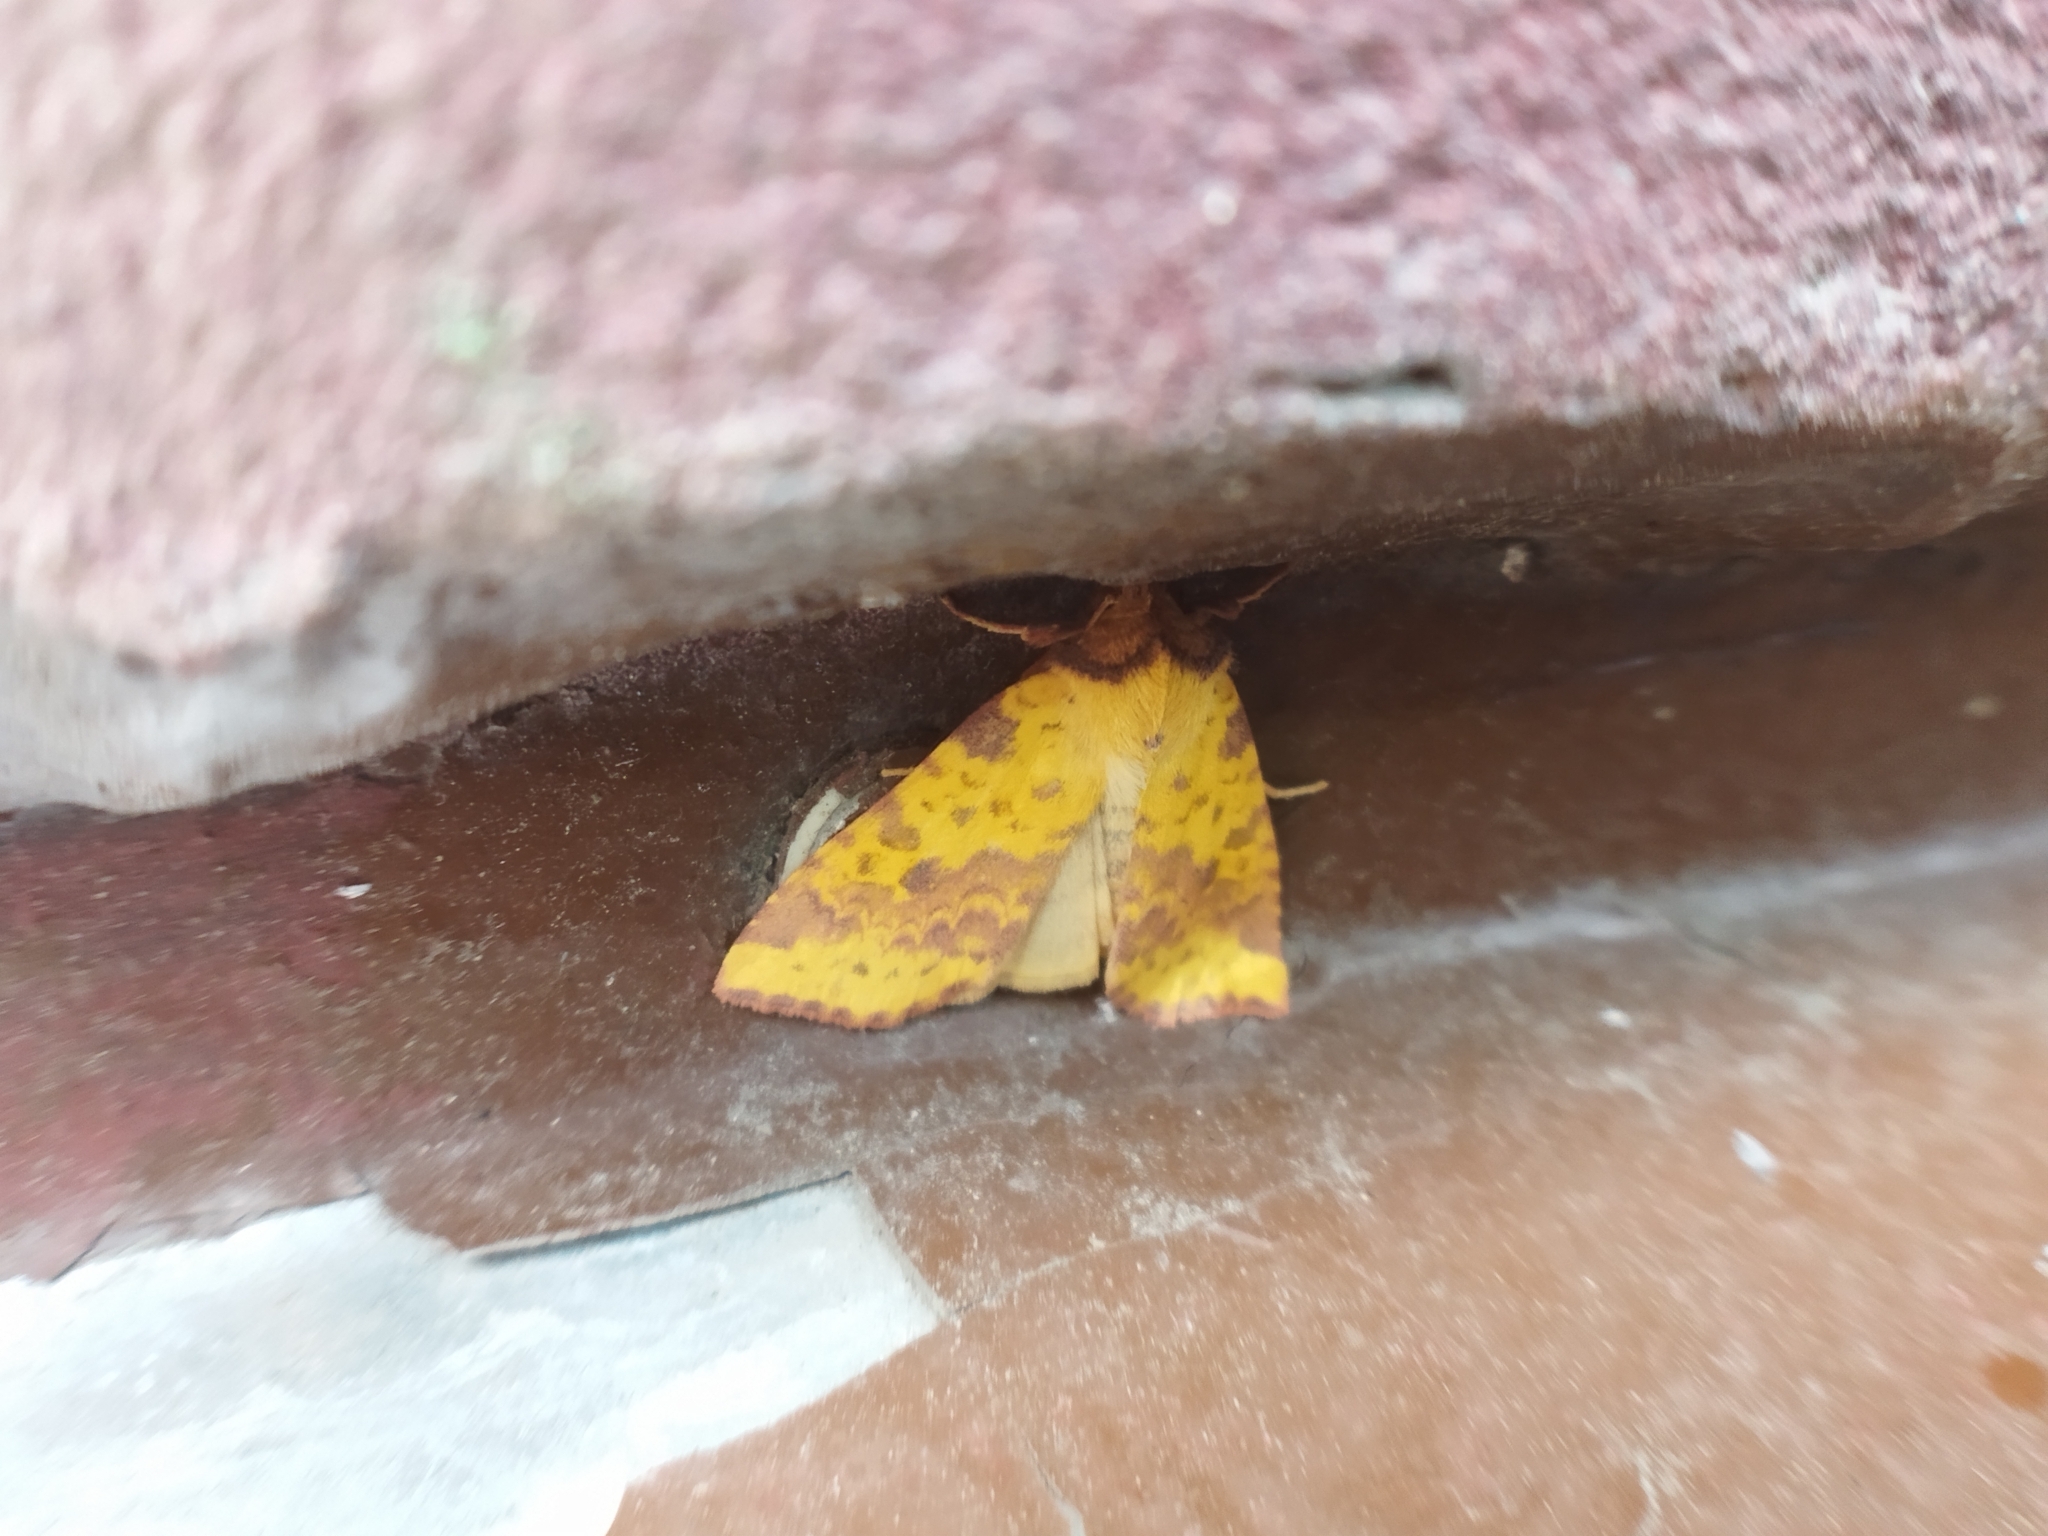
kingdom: Animalia
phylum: Arthropoda
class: Insecta
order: Lepidoptera
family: Noctuidae
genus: Xanthia
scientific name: Xanthia togata
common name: Pink-barred sallow
